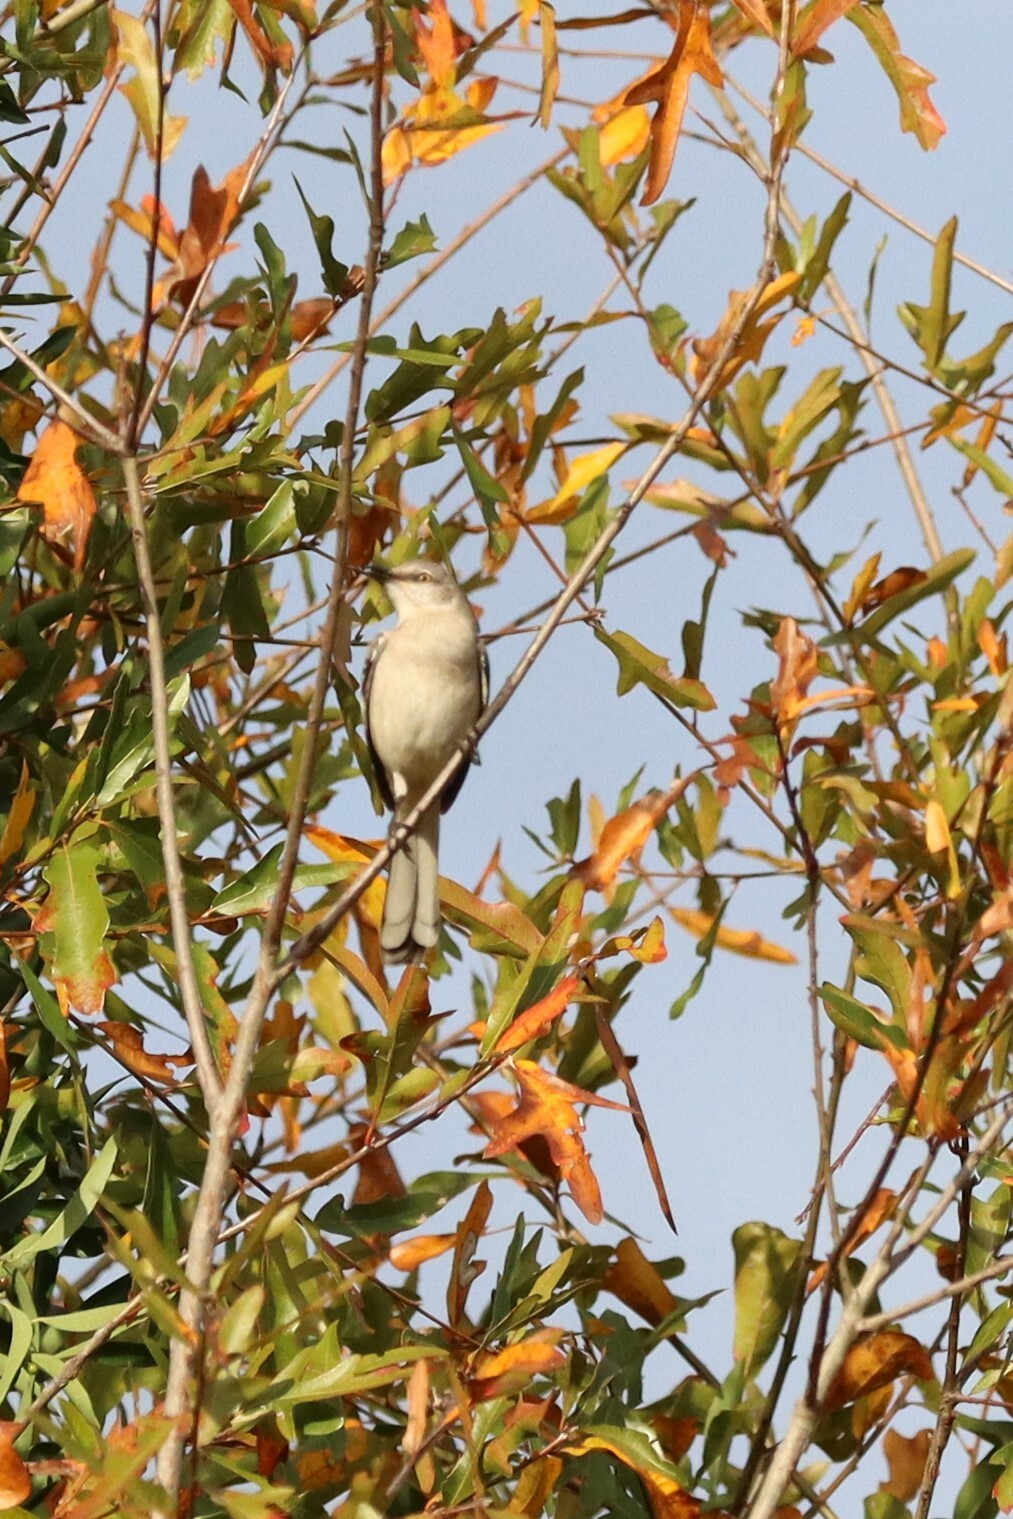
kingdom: Animalia
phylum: Chordata
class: Aves
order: Passeriformes
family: Mimidae
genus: Mimus
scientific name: Mimus polyglottos
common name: Northern mockingbird
